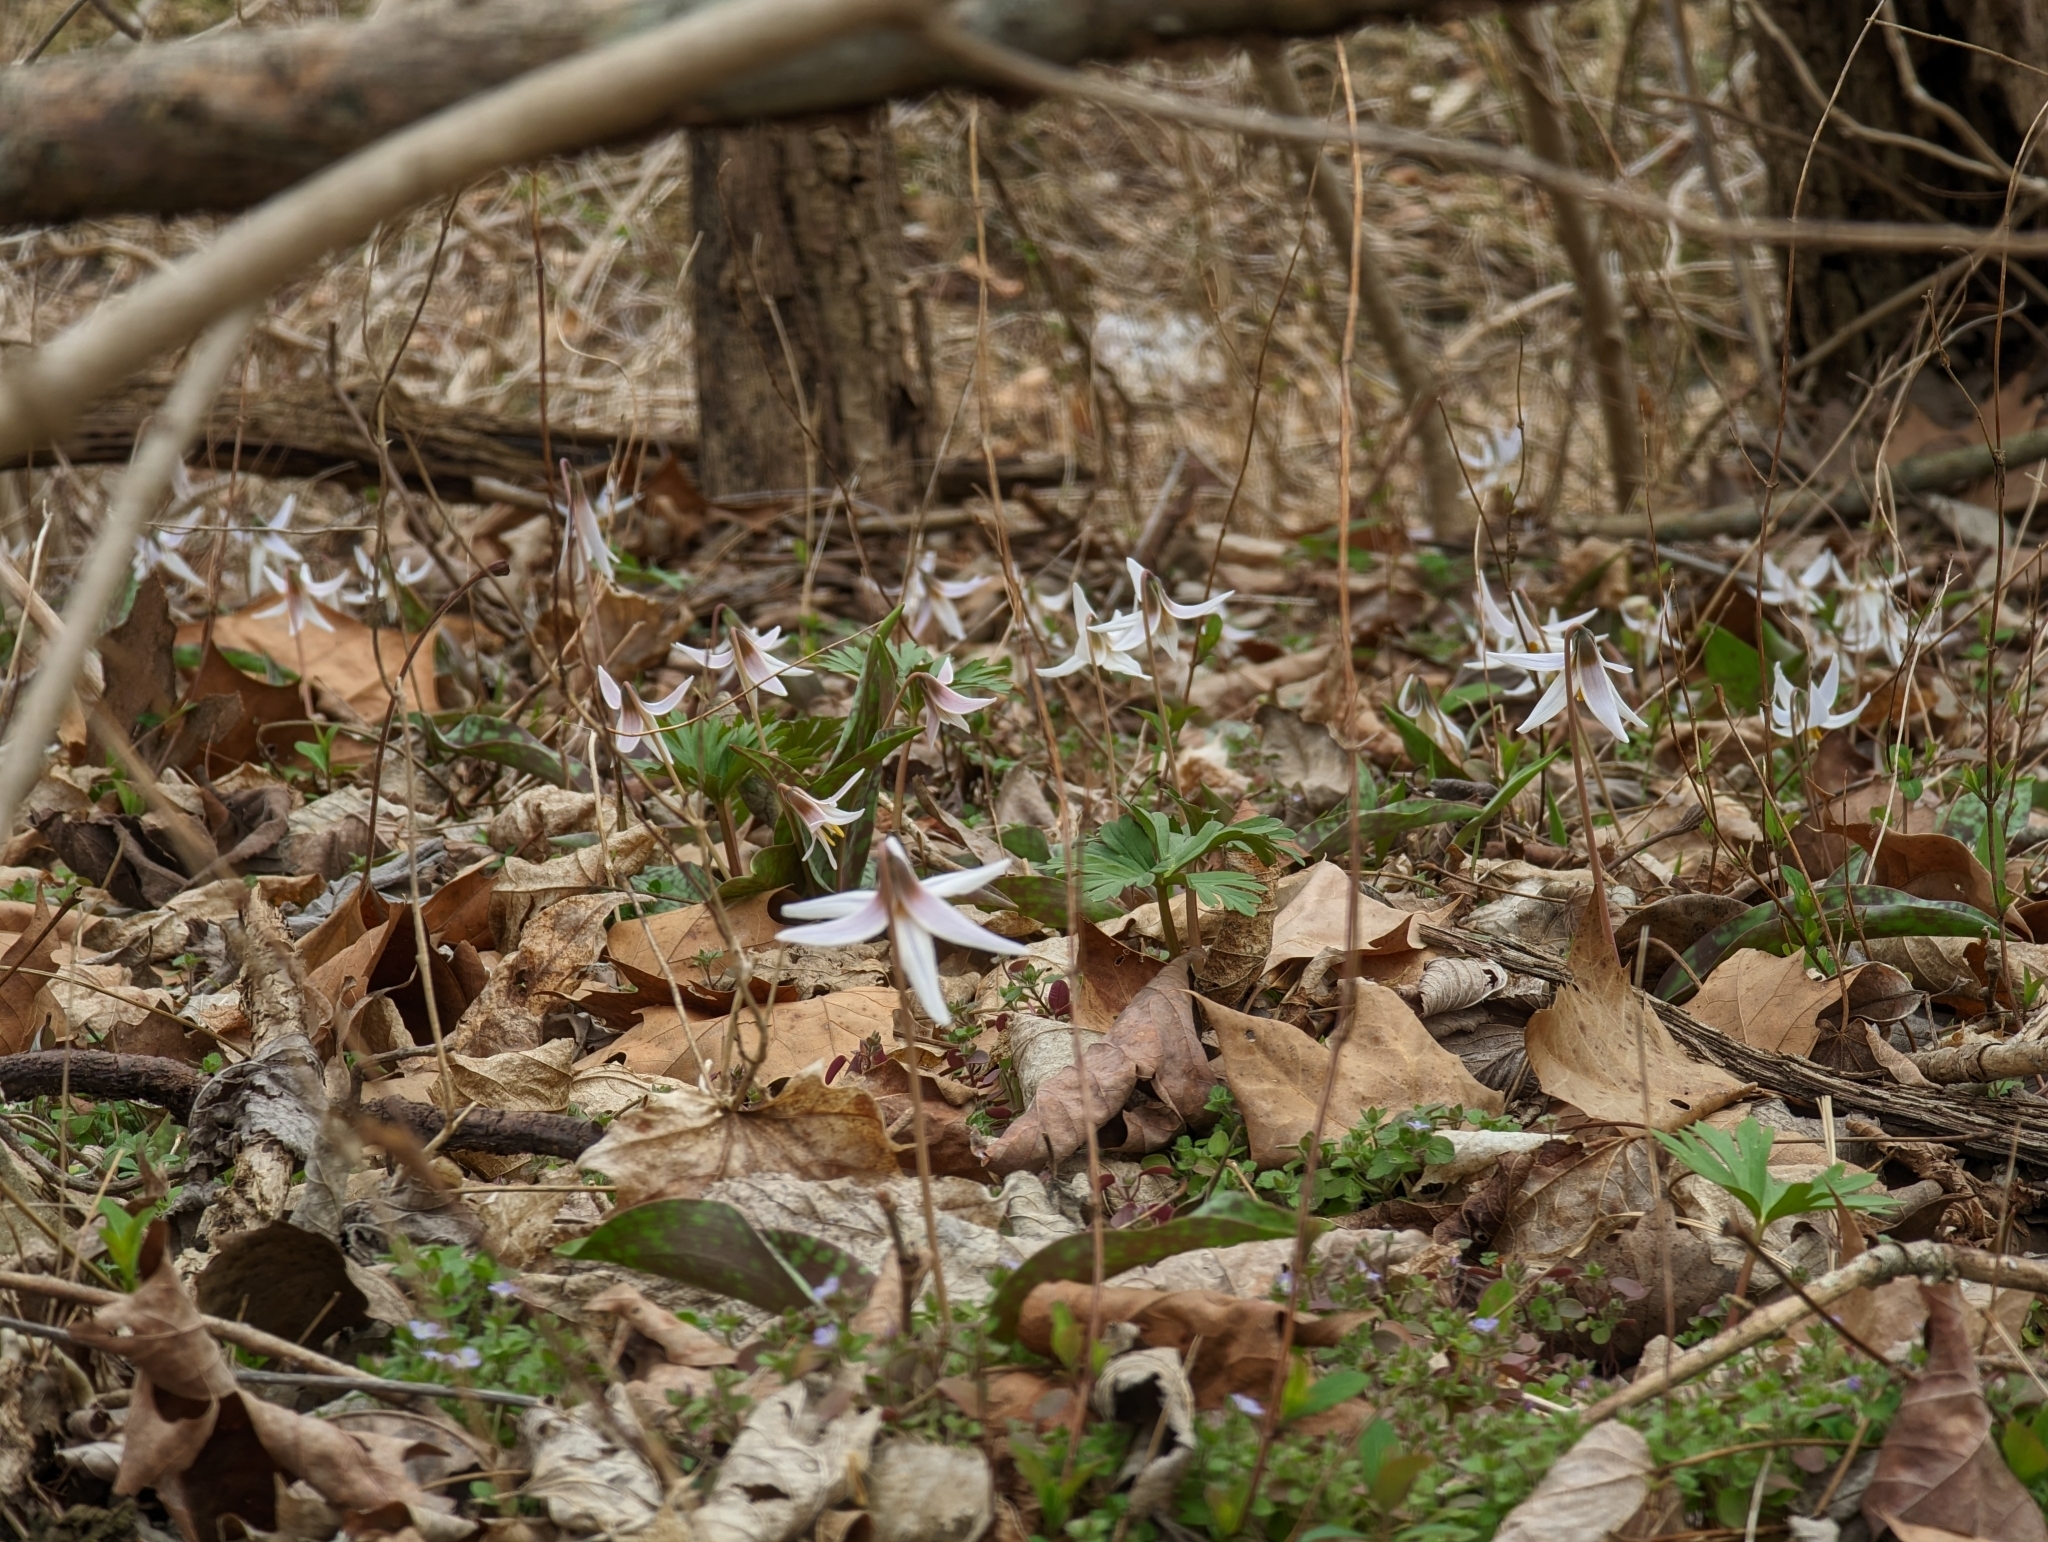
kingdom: Plantae
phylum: Tracheophyta
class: Liliopsida
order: Liliales
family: Liliaceae
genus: Erythronium
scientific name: Erythronium albidum
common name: White trout-lily
